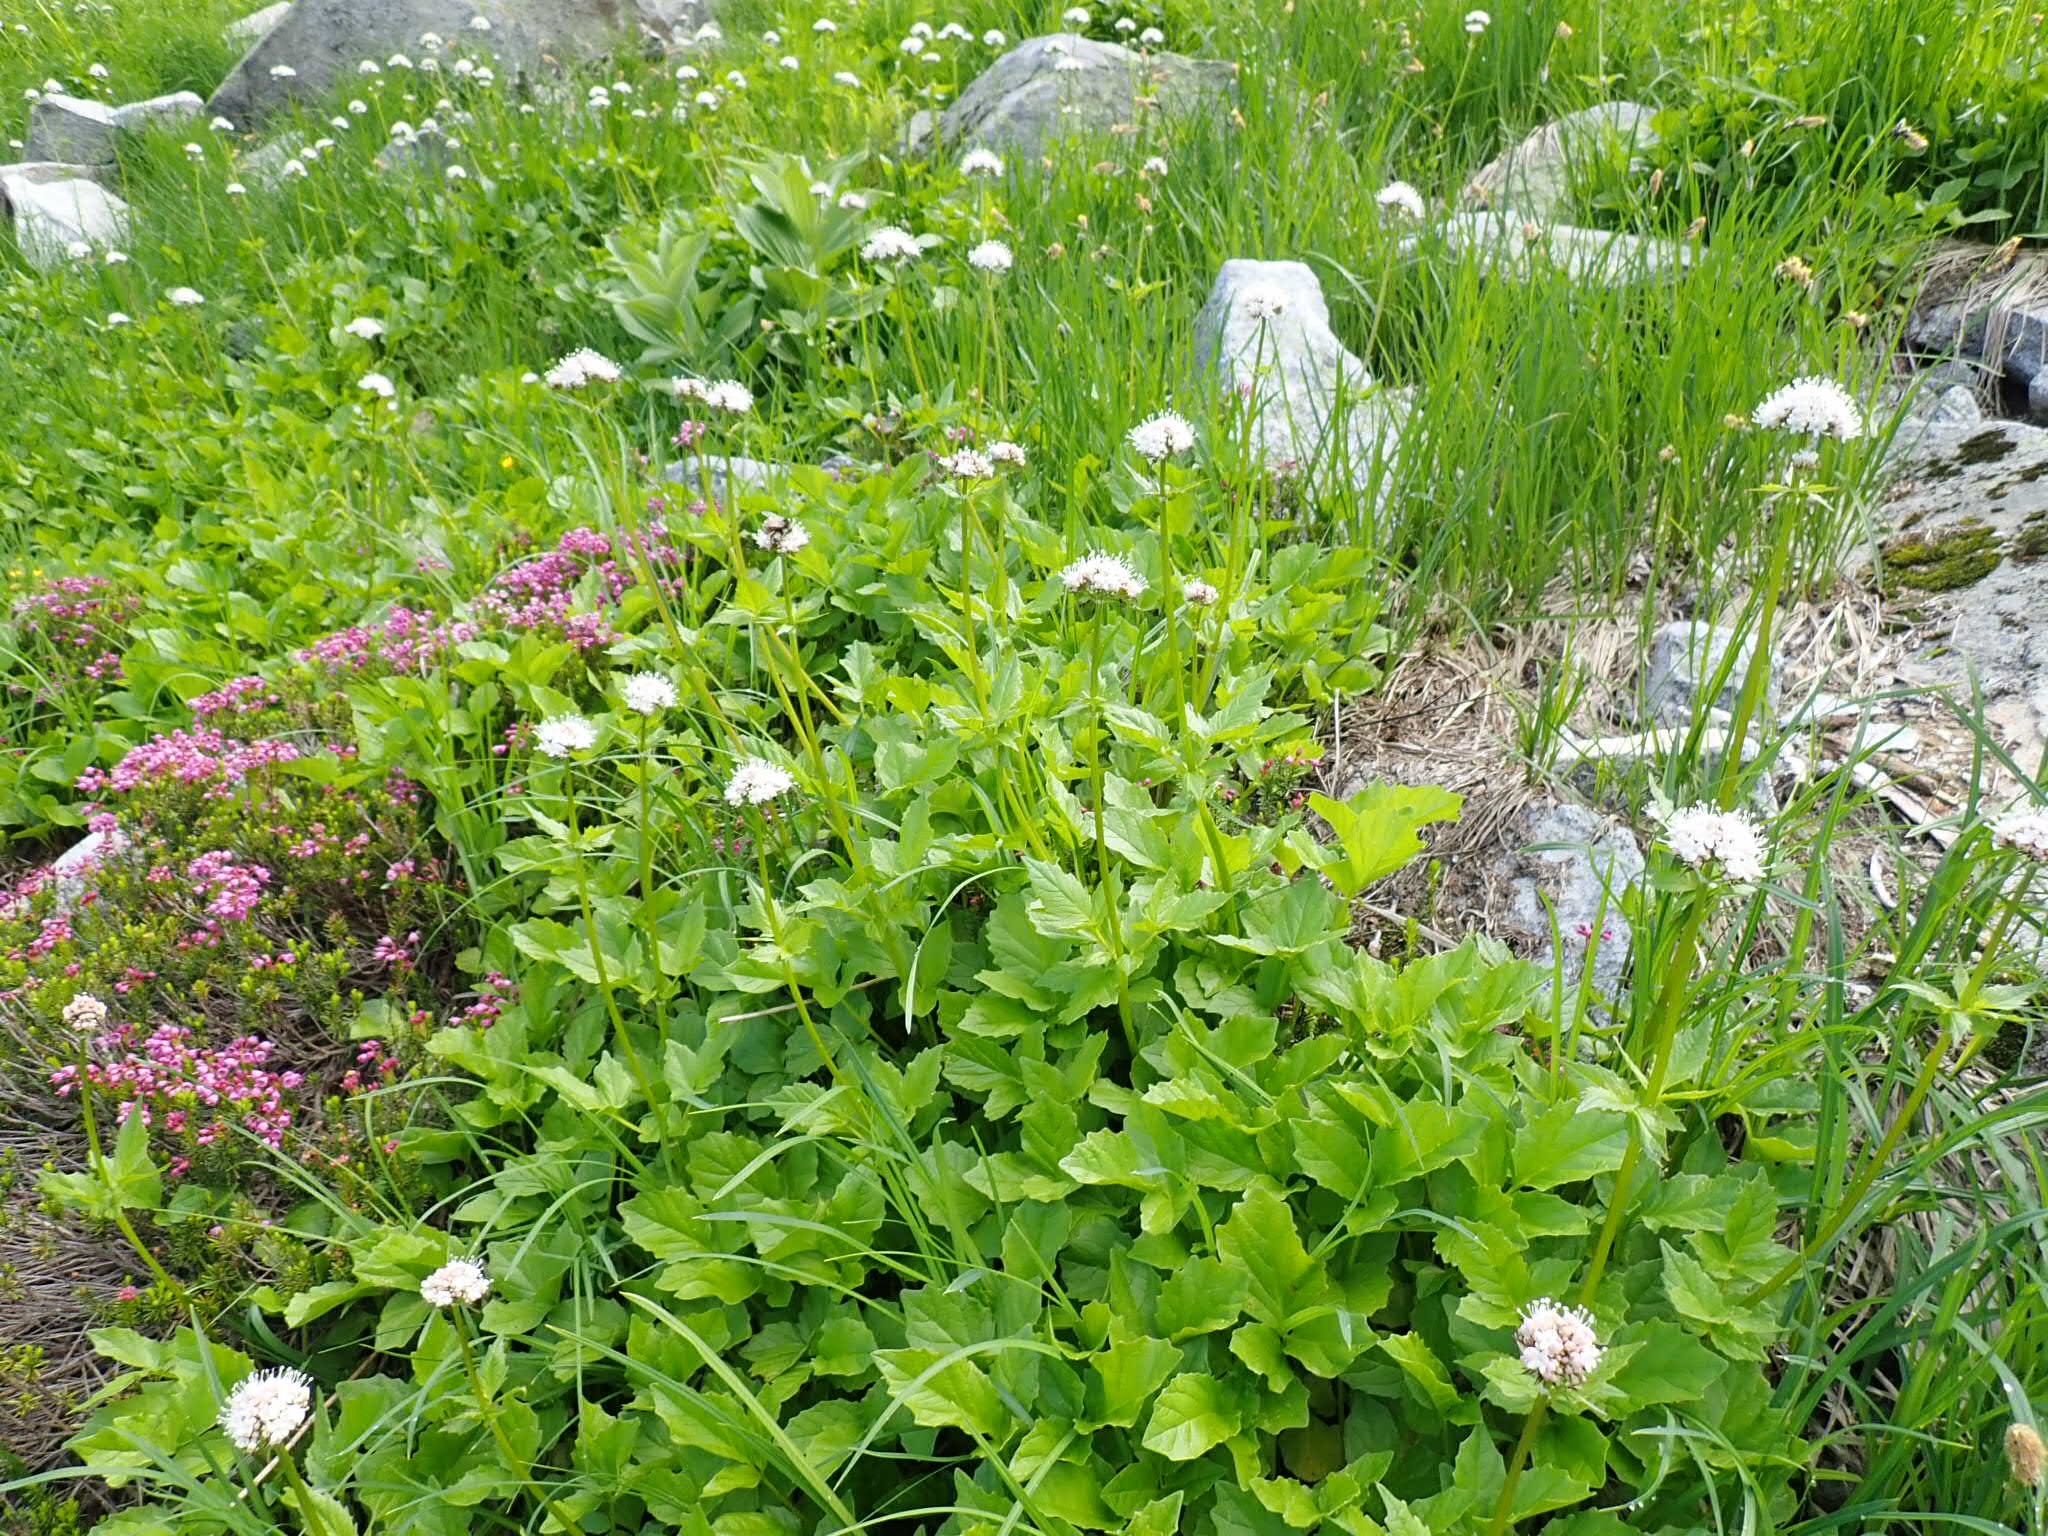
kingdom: Plantae
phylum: Tracheophyta
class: Magnoliopsida
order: Dipsacales
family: Caprifoliaceae
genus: Valeriana
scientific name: Valeriana sitchensis
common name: Pacific valerian
